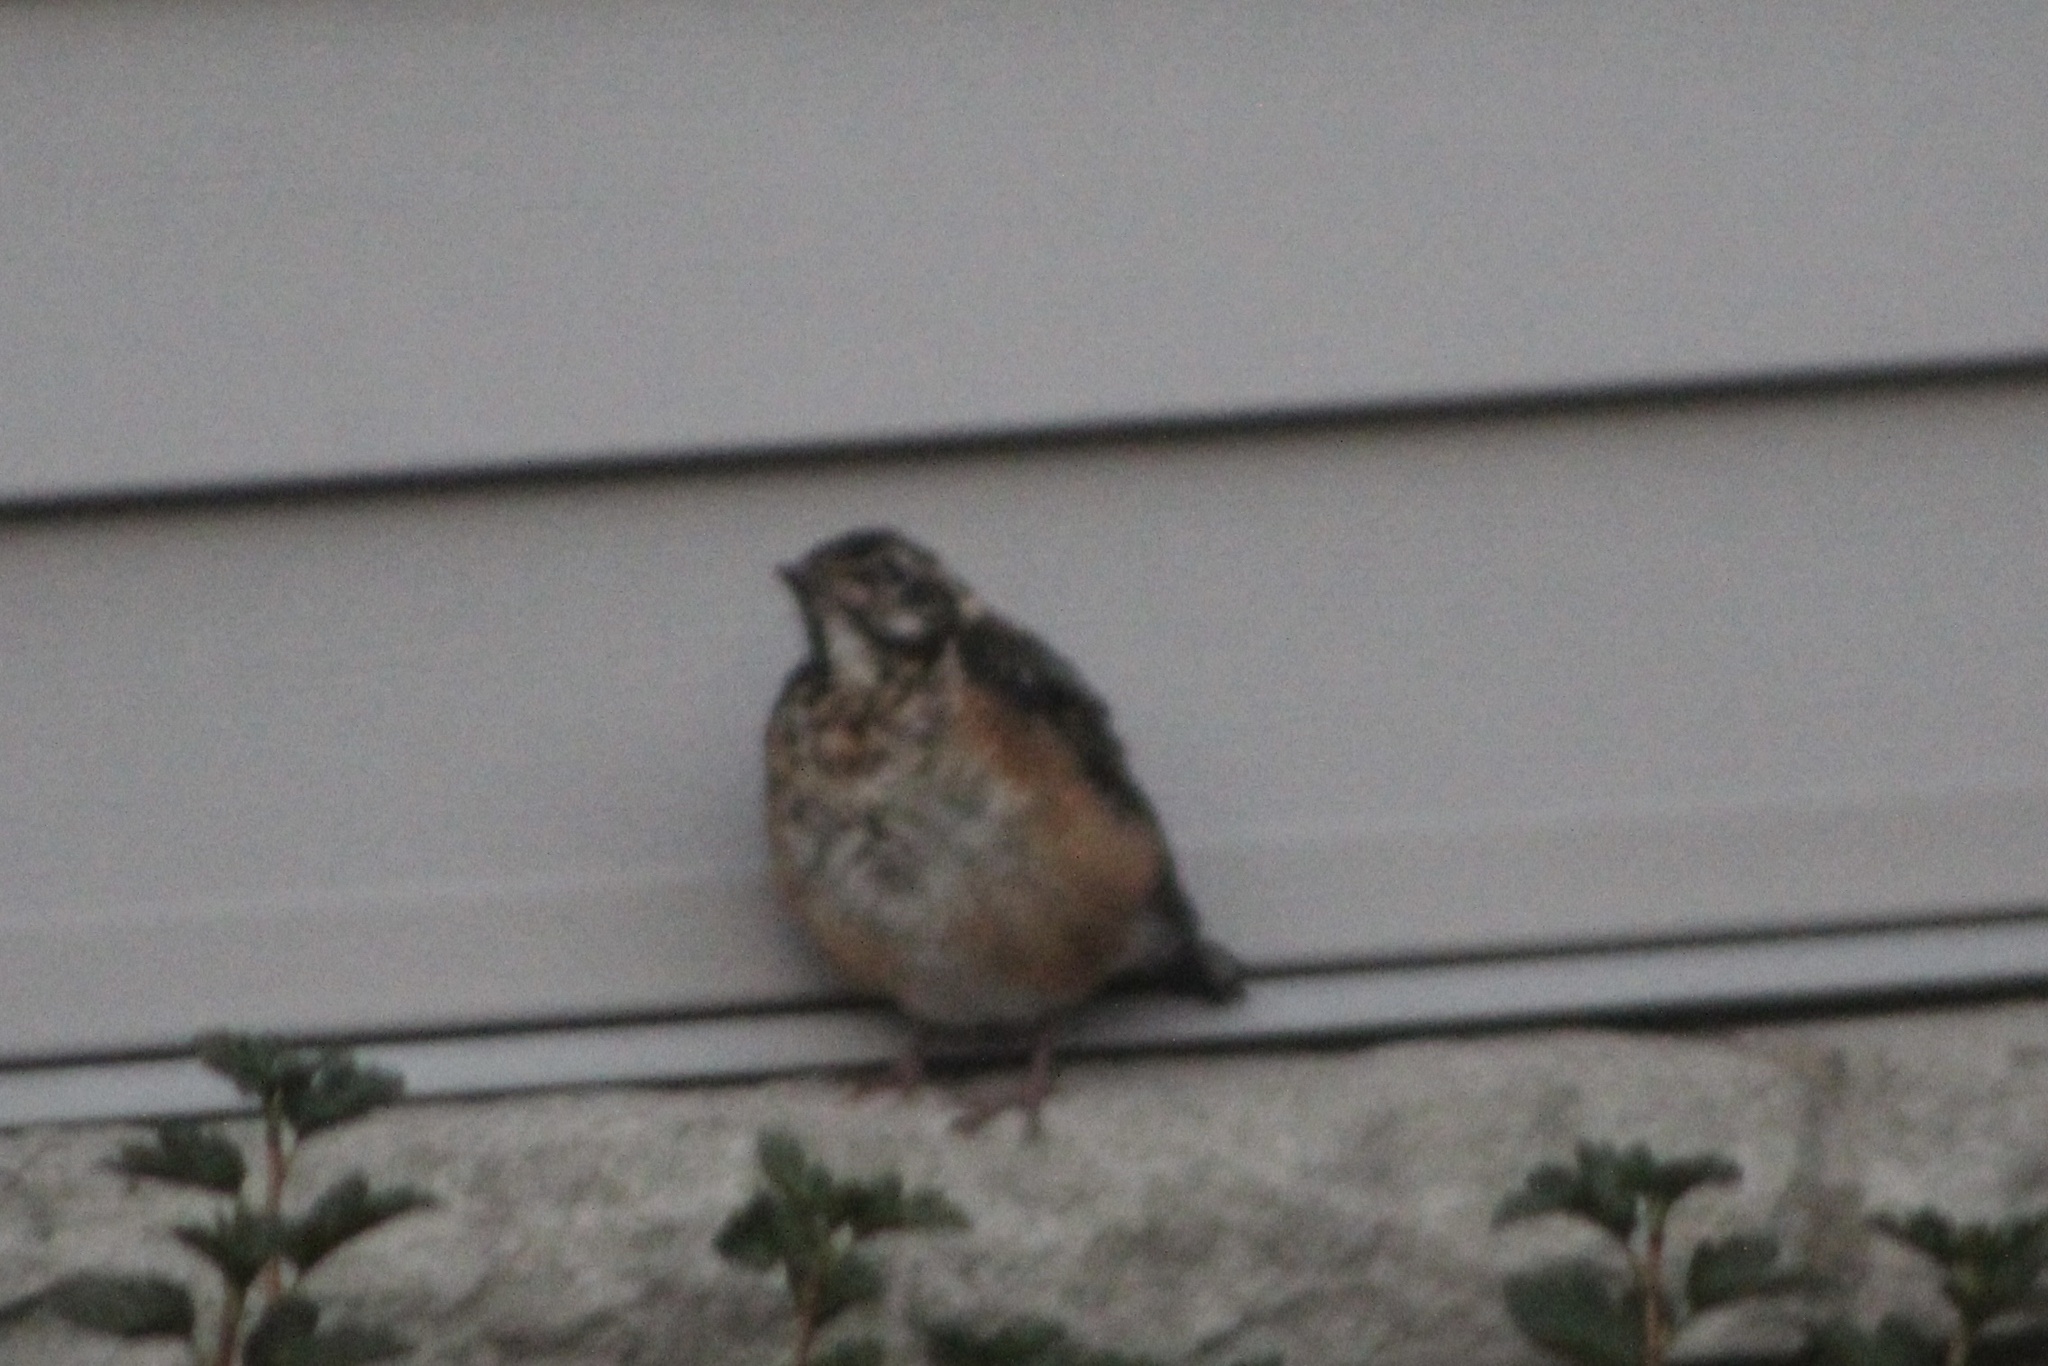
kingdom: Animalia
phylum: Chordata
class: Aves
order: Passeriformes
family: Turdidae
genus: Turdus
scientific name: Turdus migratorius
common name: American robin
